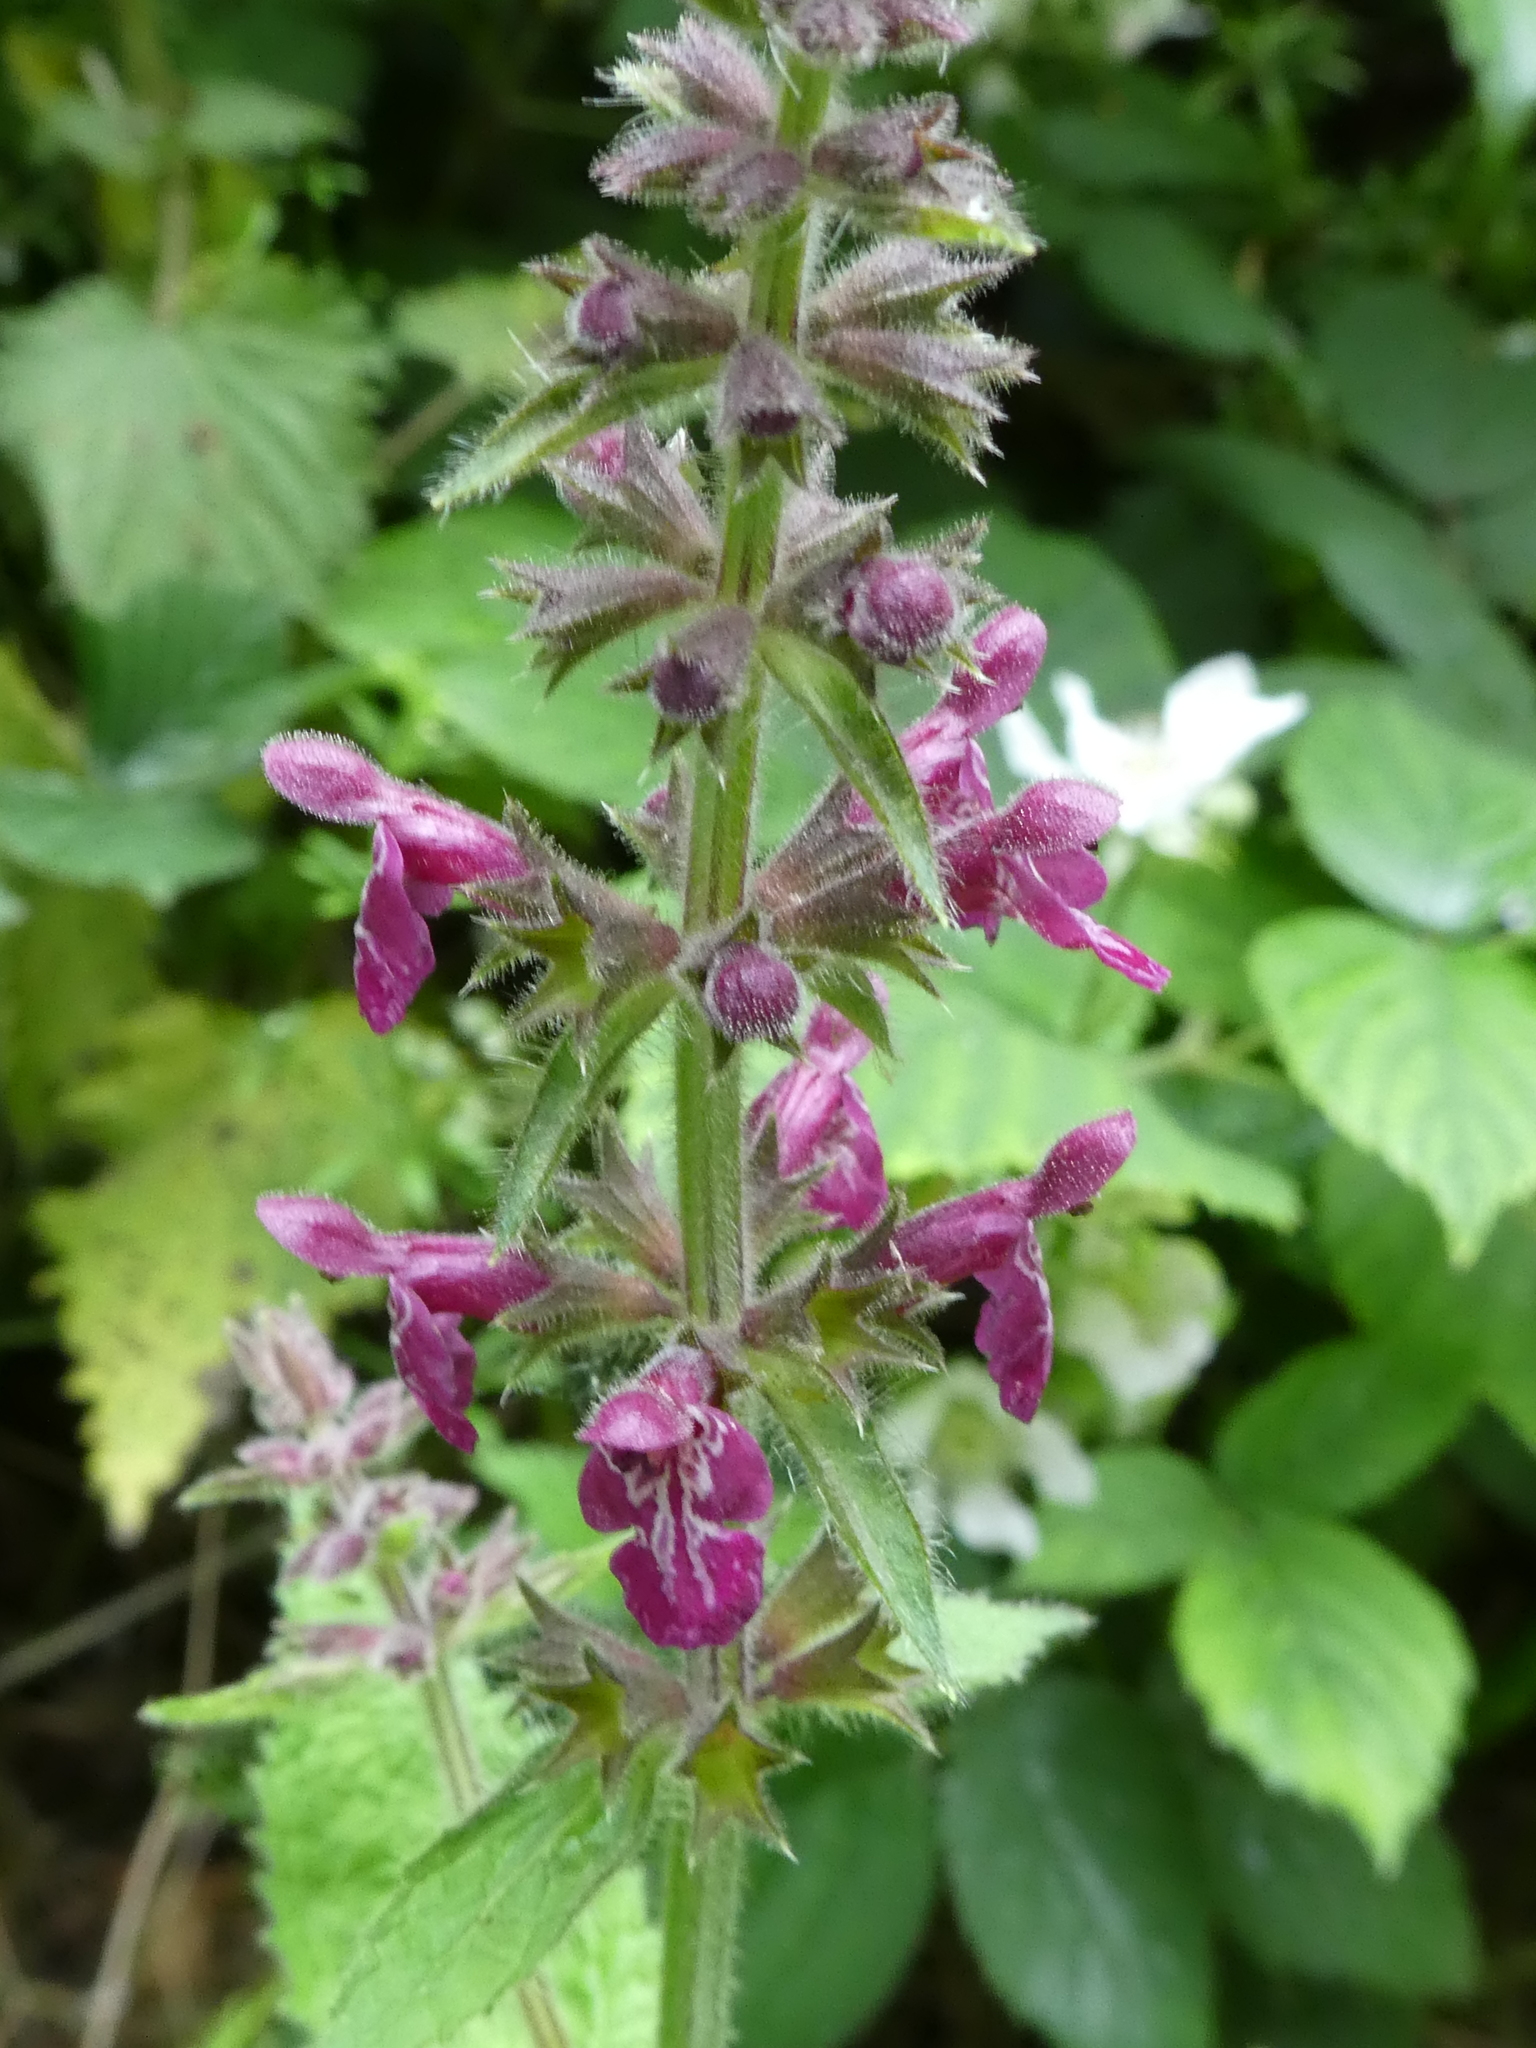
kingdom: Plantae
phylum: Tracheophyta
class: Magnoliopsida
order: Lamiales
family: Lamiaceae
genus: Stachys
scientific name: Stachys sylvatica
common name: Hedge woundwort
